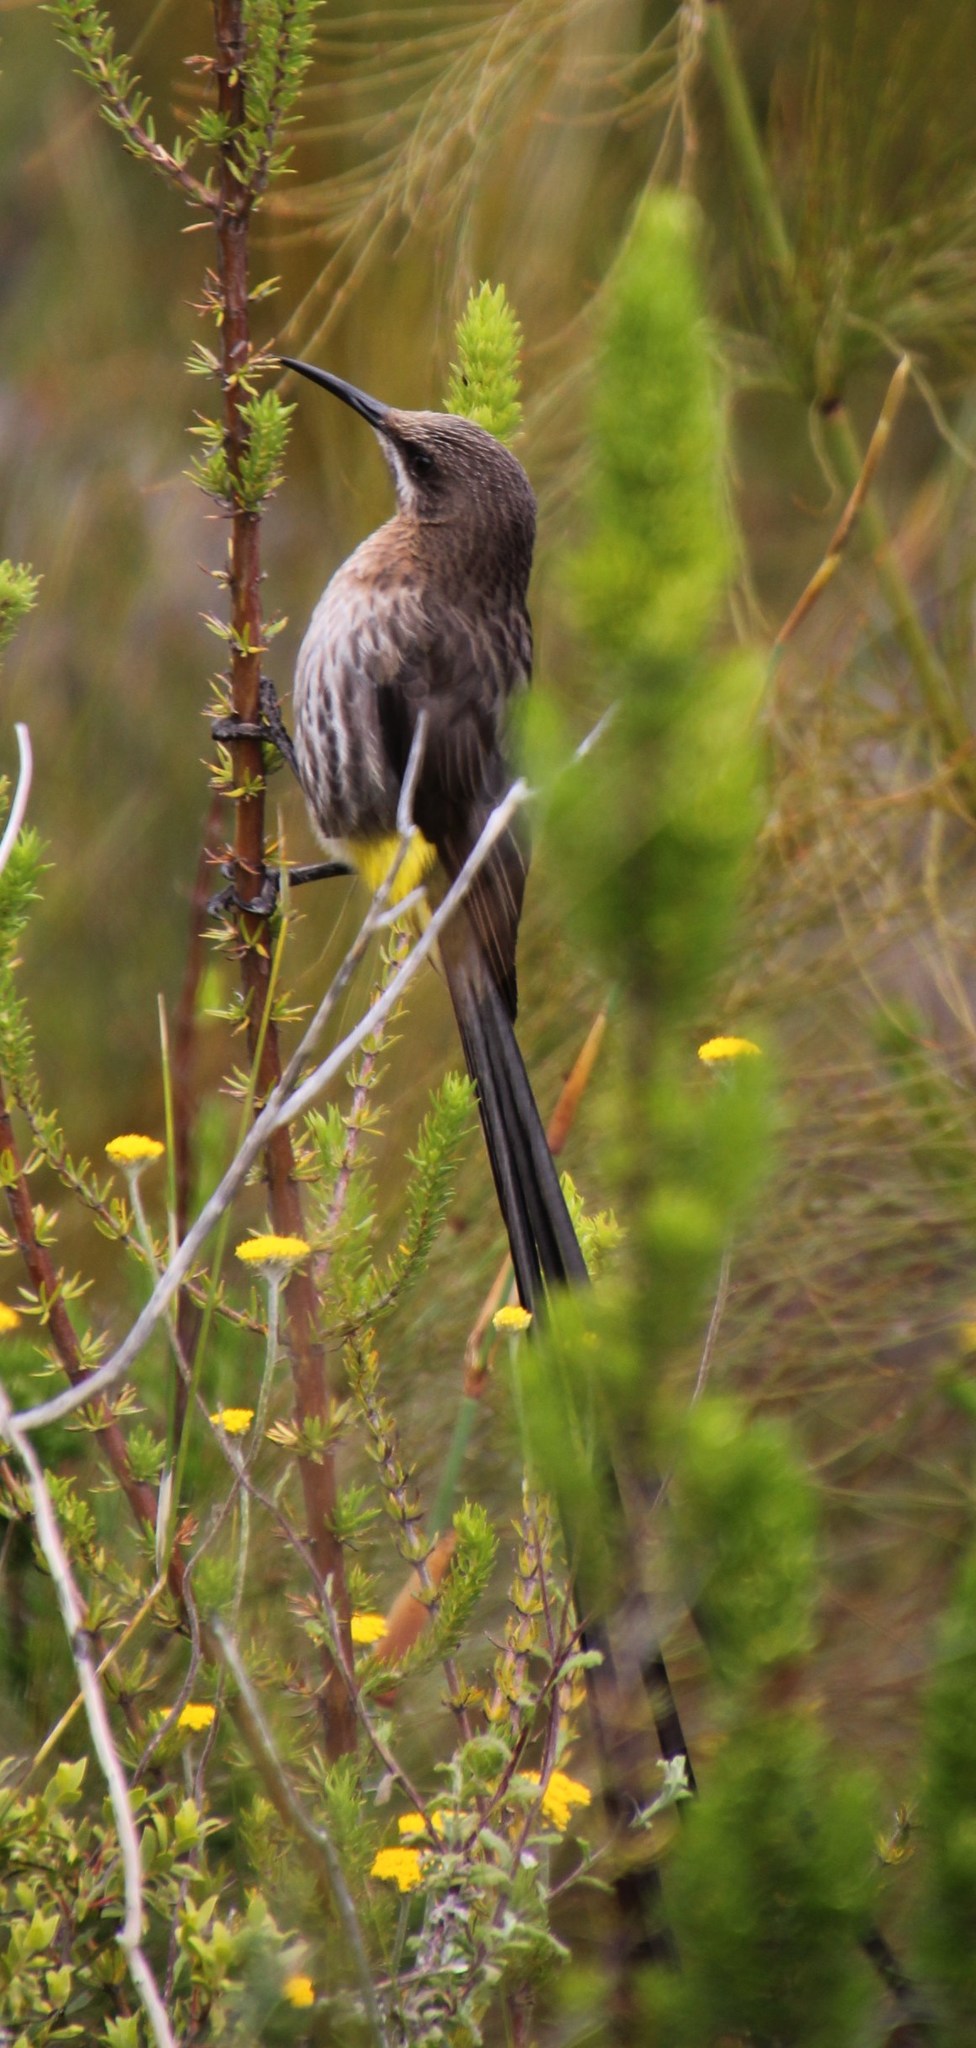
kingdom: Animalia
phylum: Chordata
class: Aves
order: Passeriformes
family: Promeropidae
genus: Promerops
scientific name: Promerops cafer
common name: Cape sugarbird
